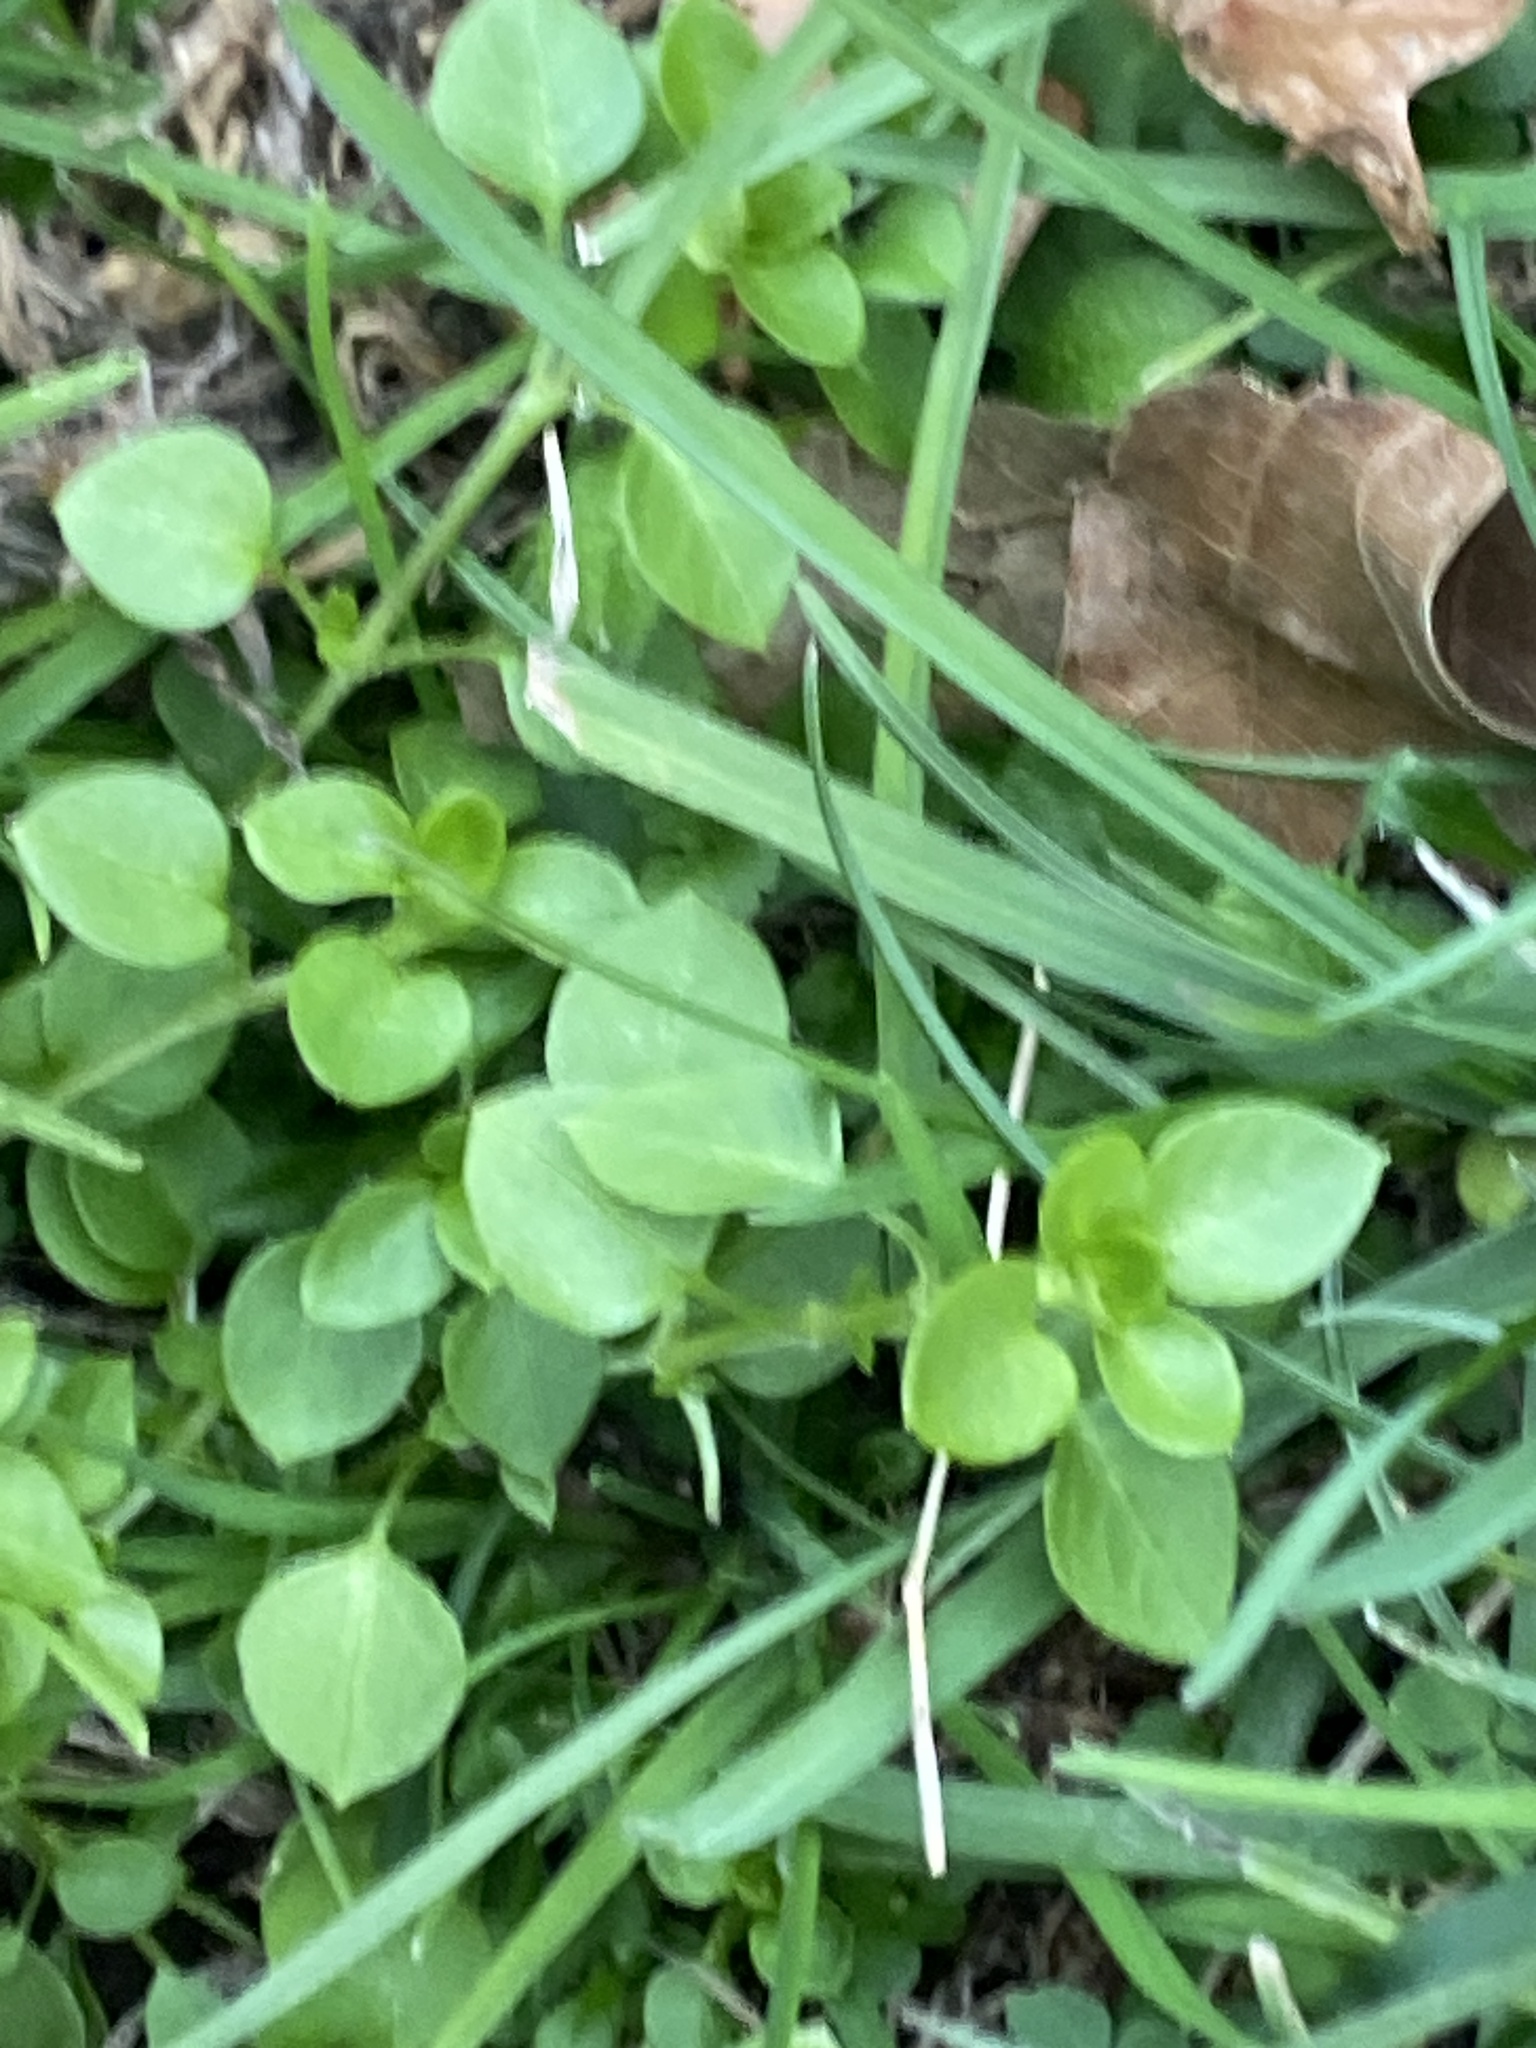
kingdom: Plantae
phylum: Tracheophyta
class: Magnoliopsida
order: Caryophyllales
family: Caryophyllaceae
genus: Stellaria
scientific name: Stellaria media
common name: Common chickweed
